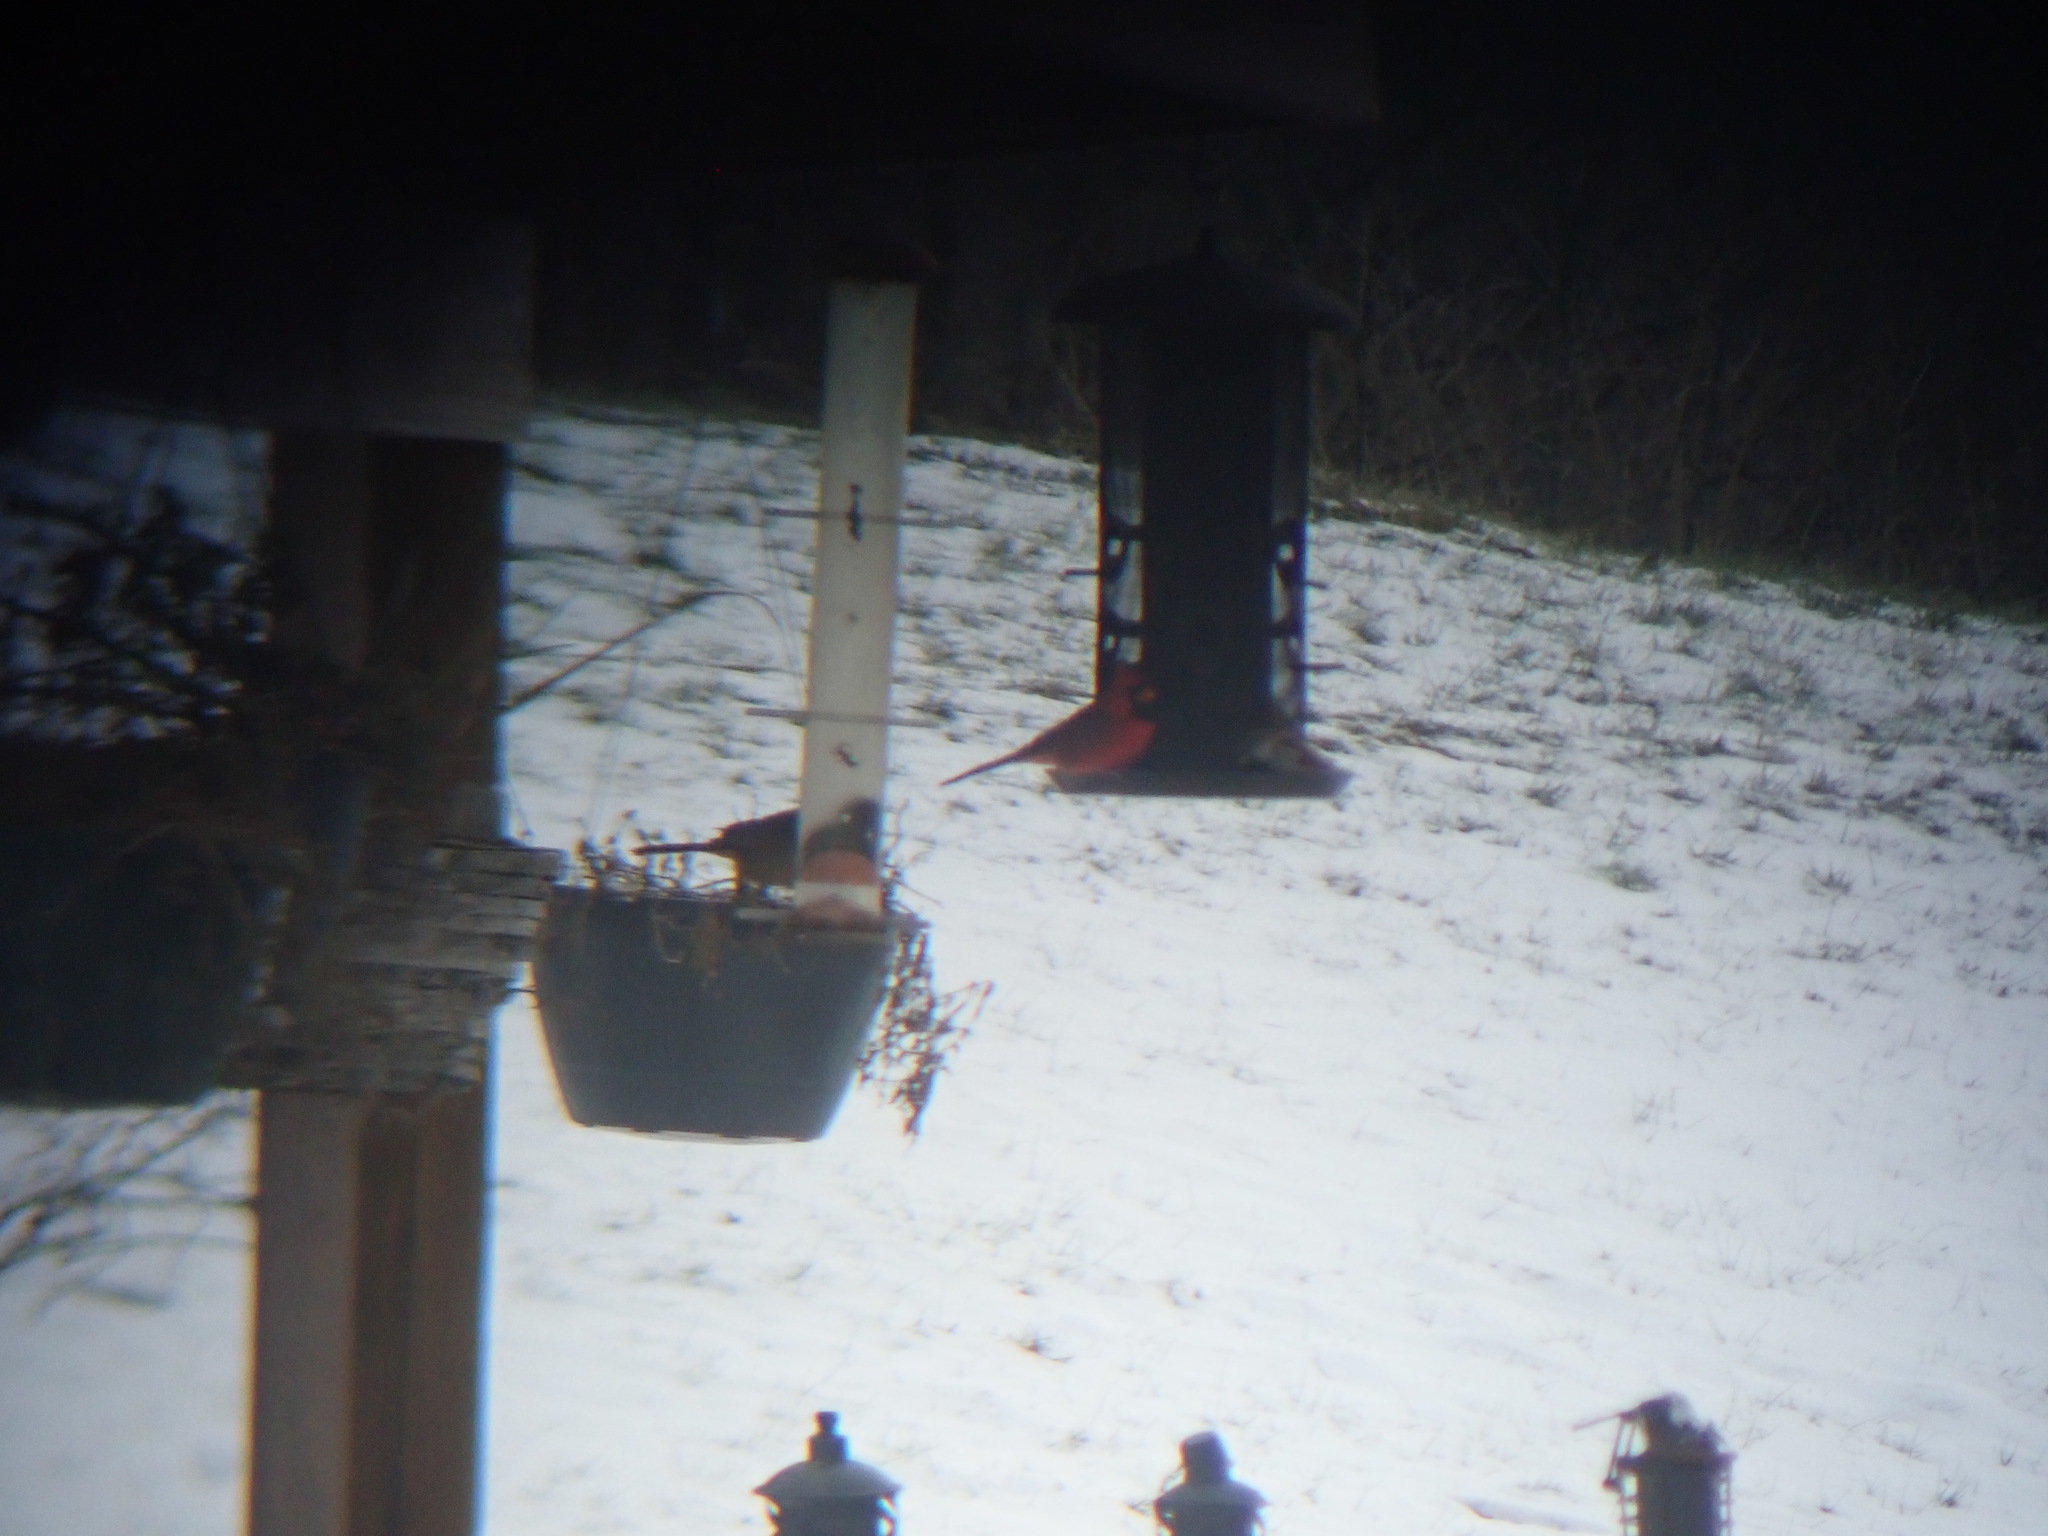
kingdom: Animalia
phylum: Chordata
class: Aves
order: Passeriformes
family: Cardinalidae
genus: Cardinalis
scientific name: Cardinalis cardinalis
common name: Northern cardinal
